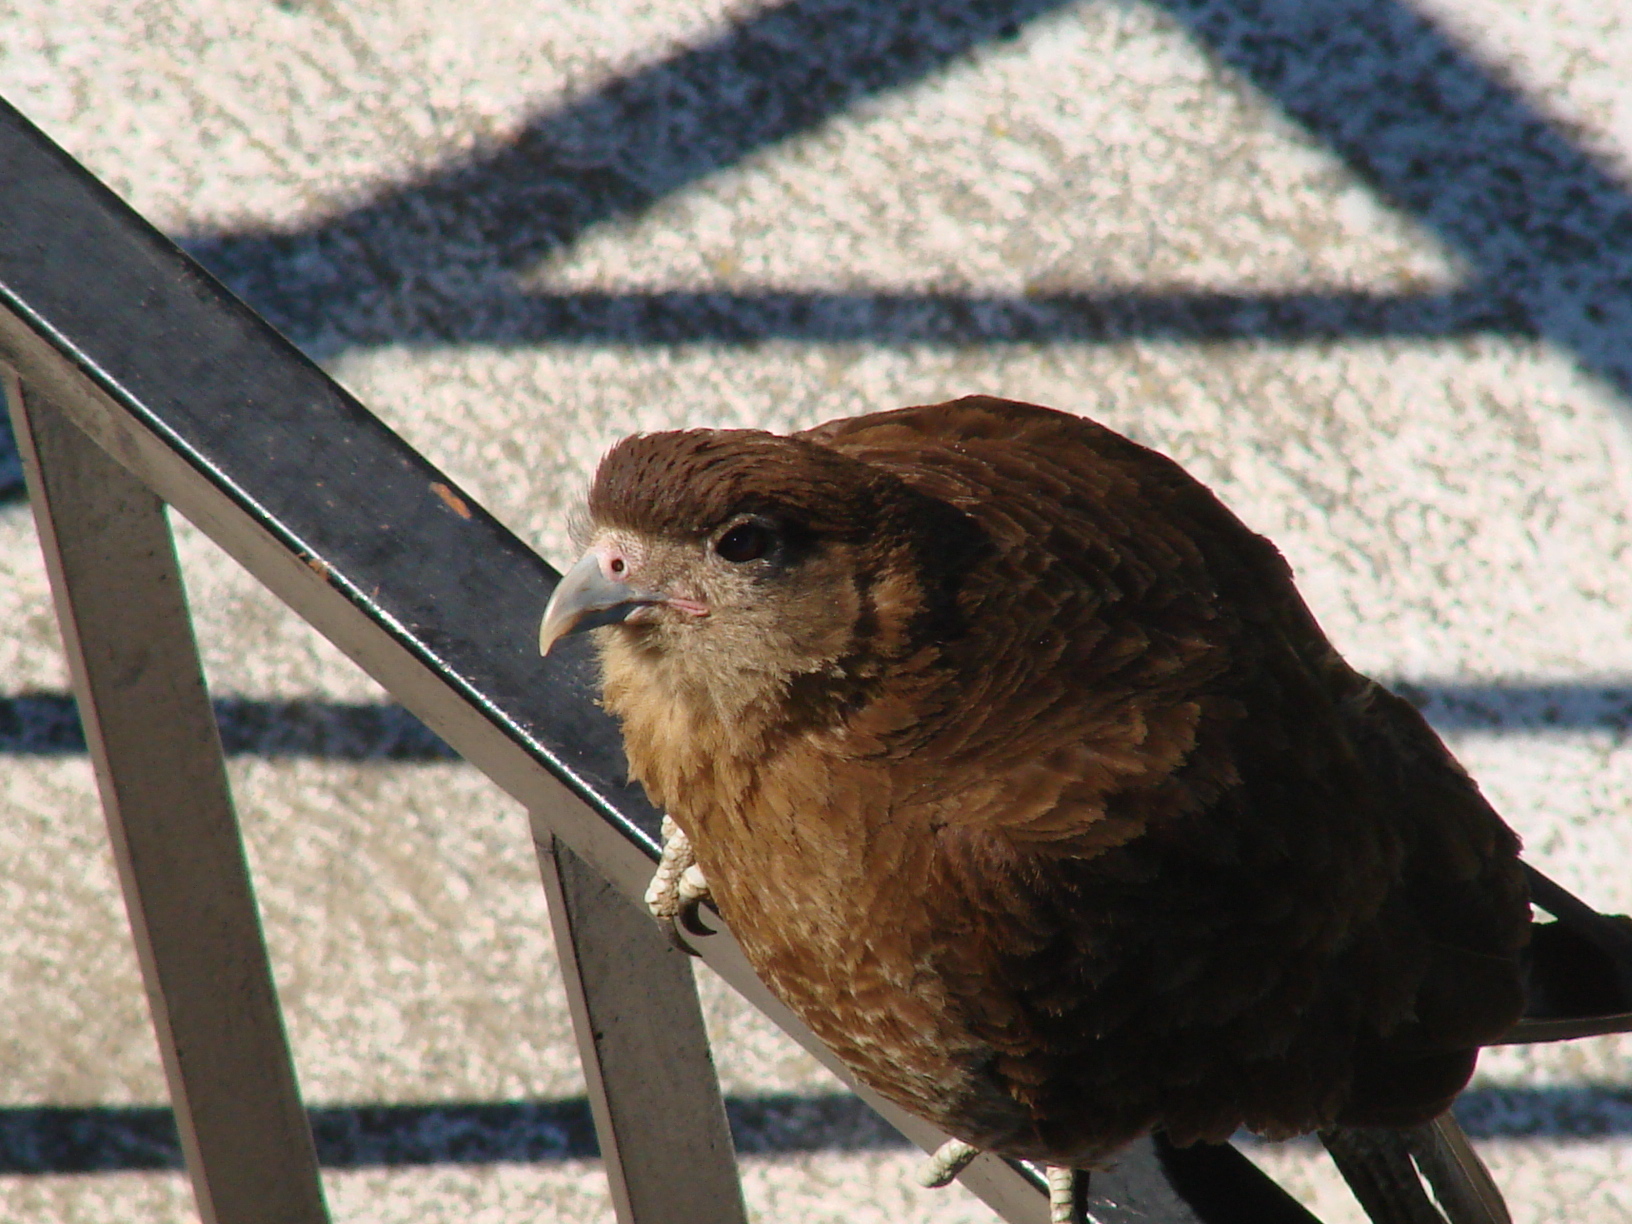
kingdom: Animalia
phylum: Chordata
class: Aves
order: Falconiformes
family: Falconidae
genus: Daptrius
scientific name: Daptrius
